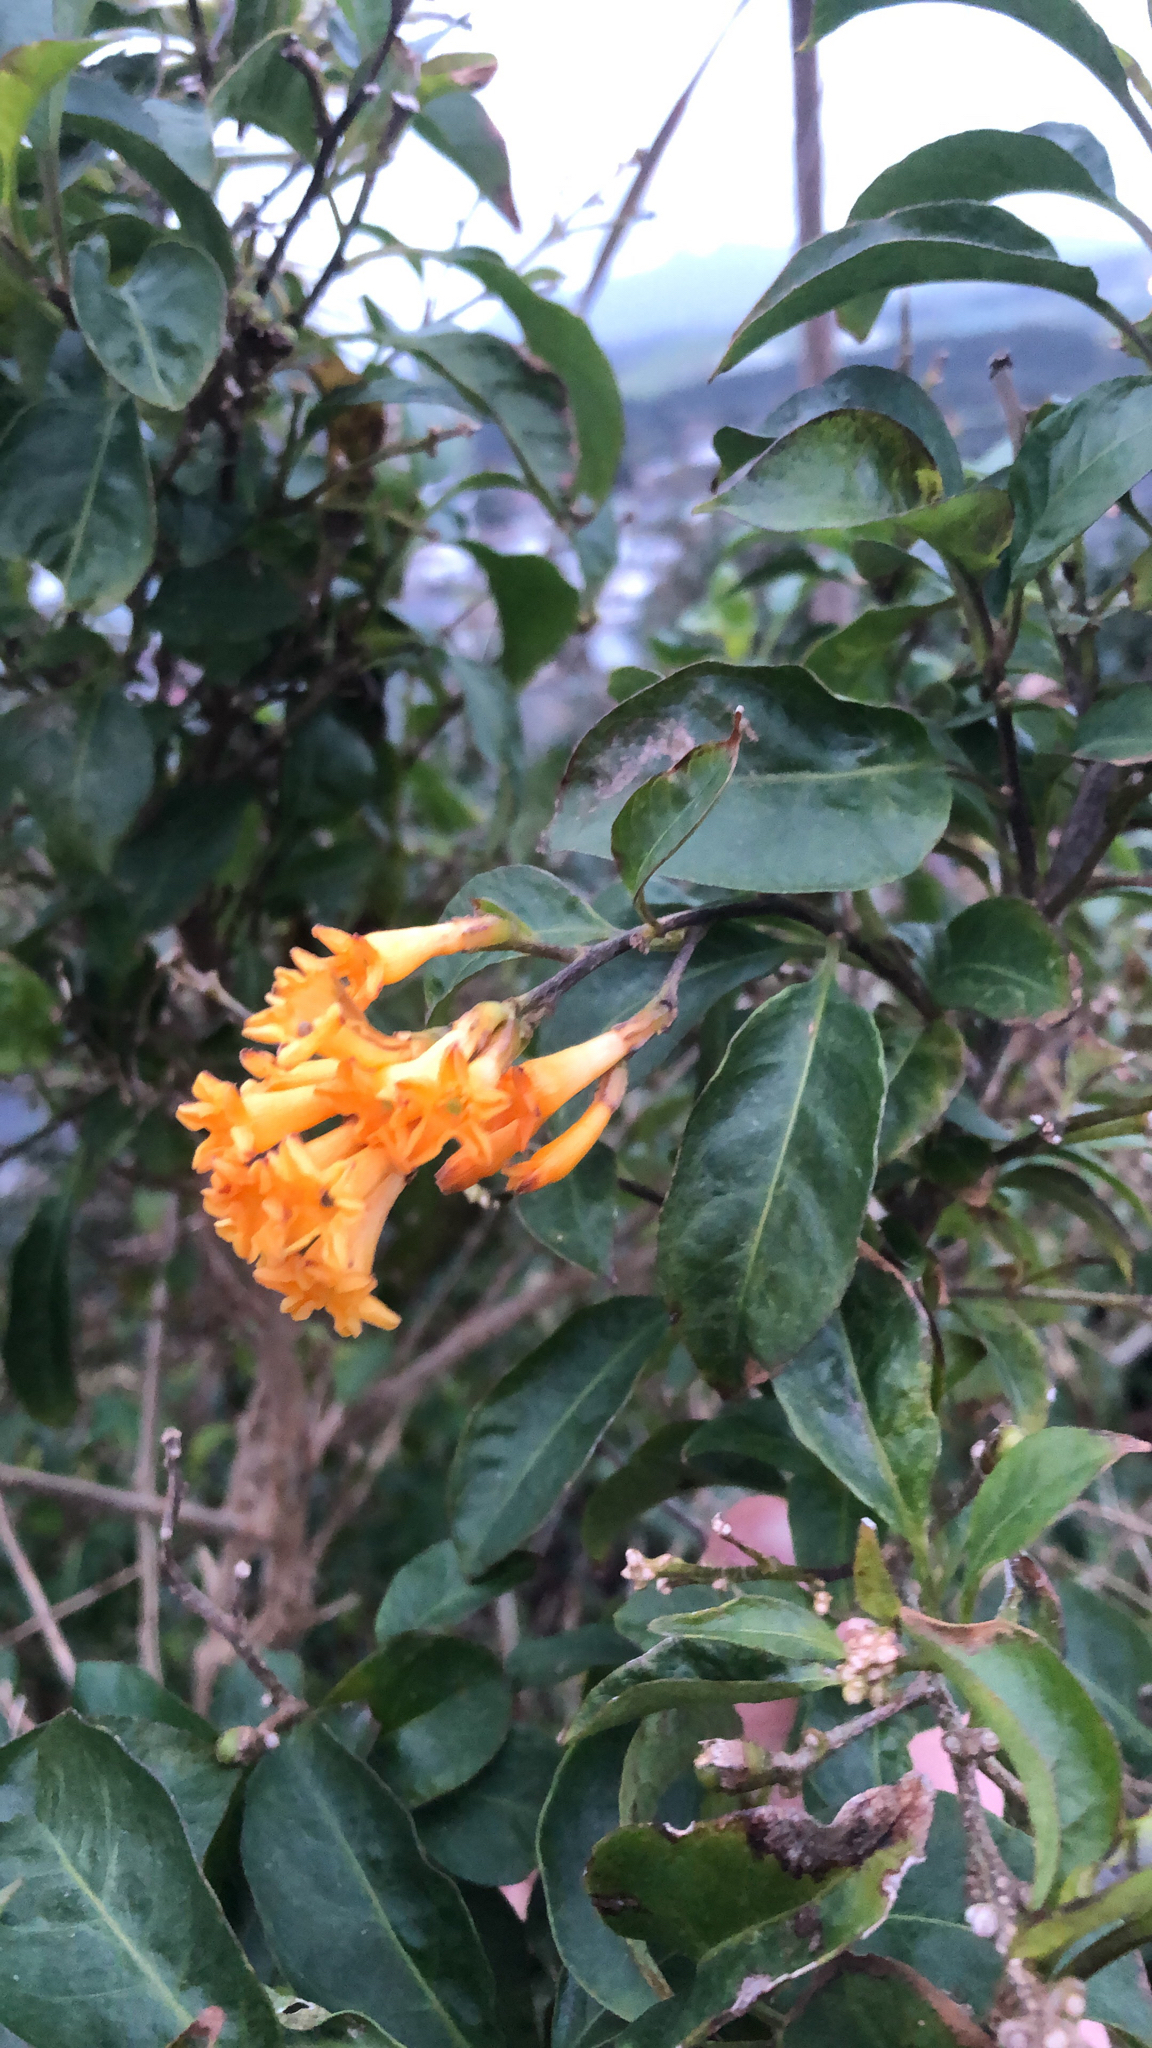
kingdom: Plantae
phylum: Tracheophyta
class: Magnoliopsida
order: Solanales
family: Solanaceae
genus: Cestrum
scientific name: Cestrum aurantiacum
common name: Orange cestrum
